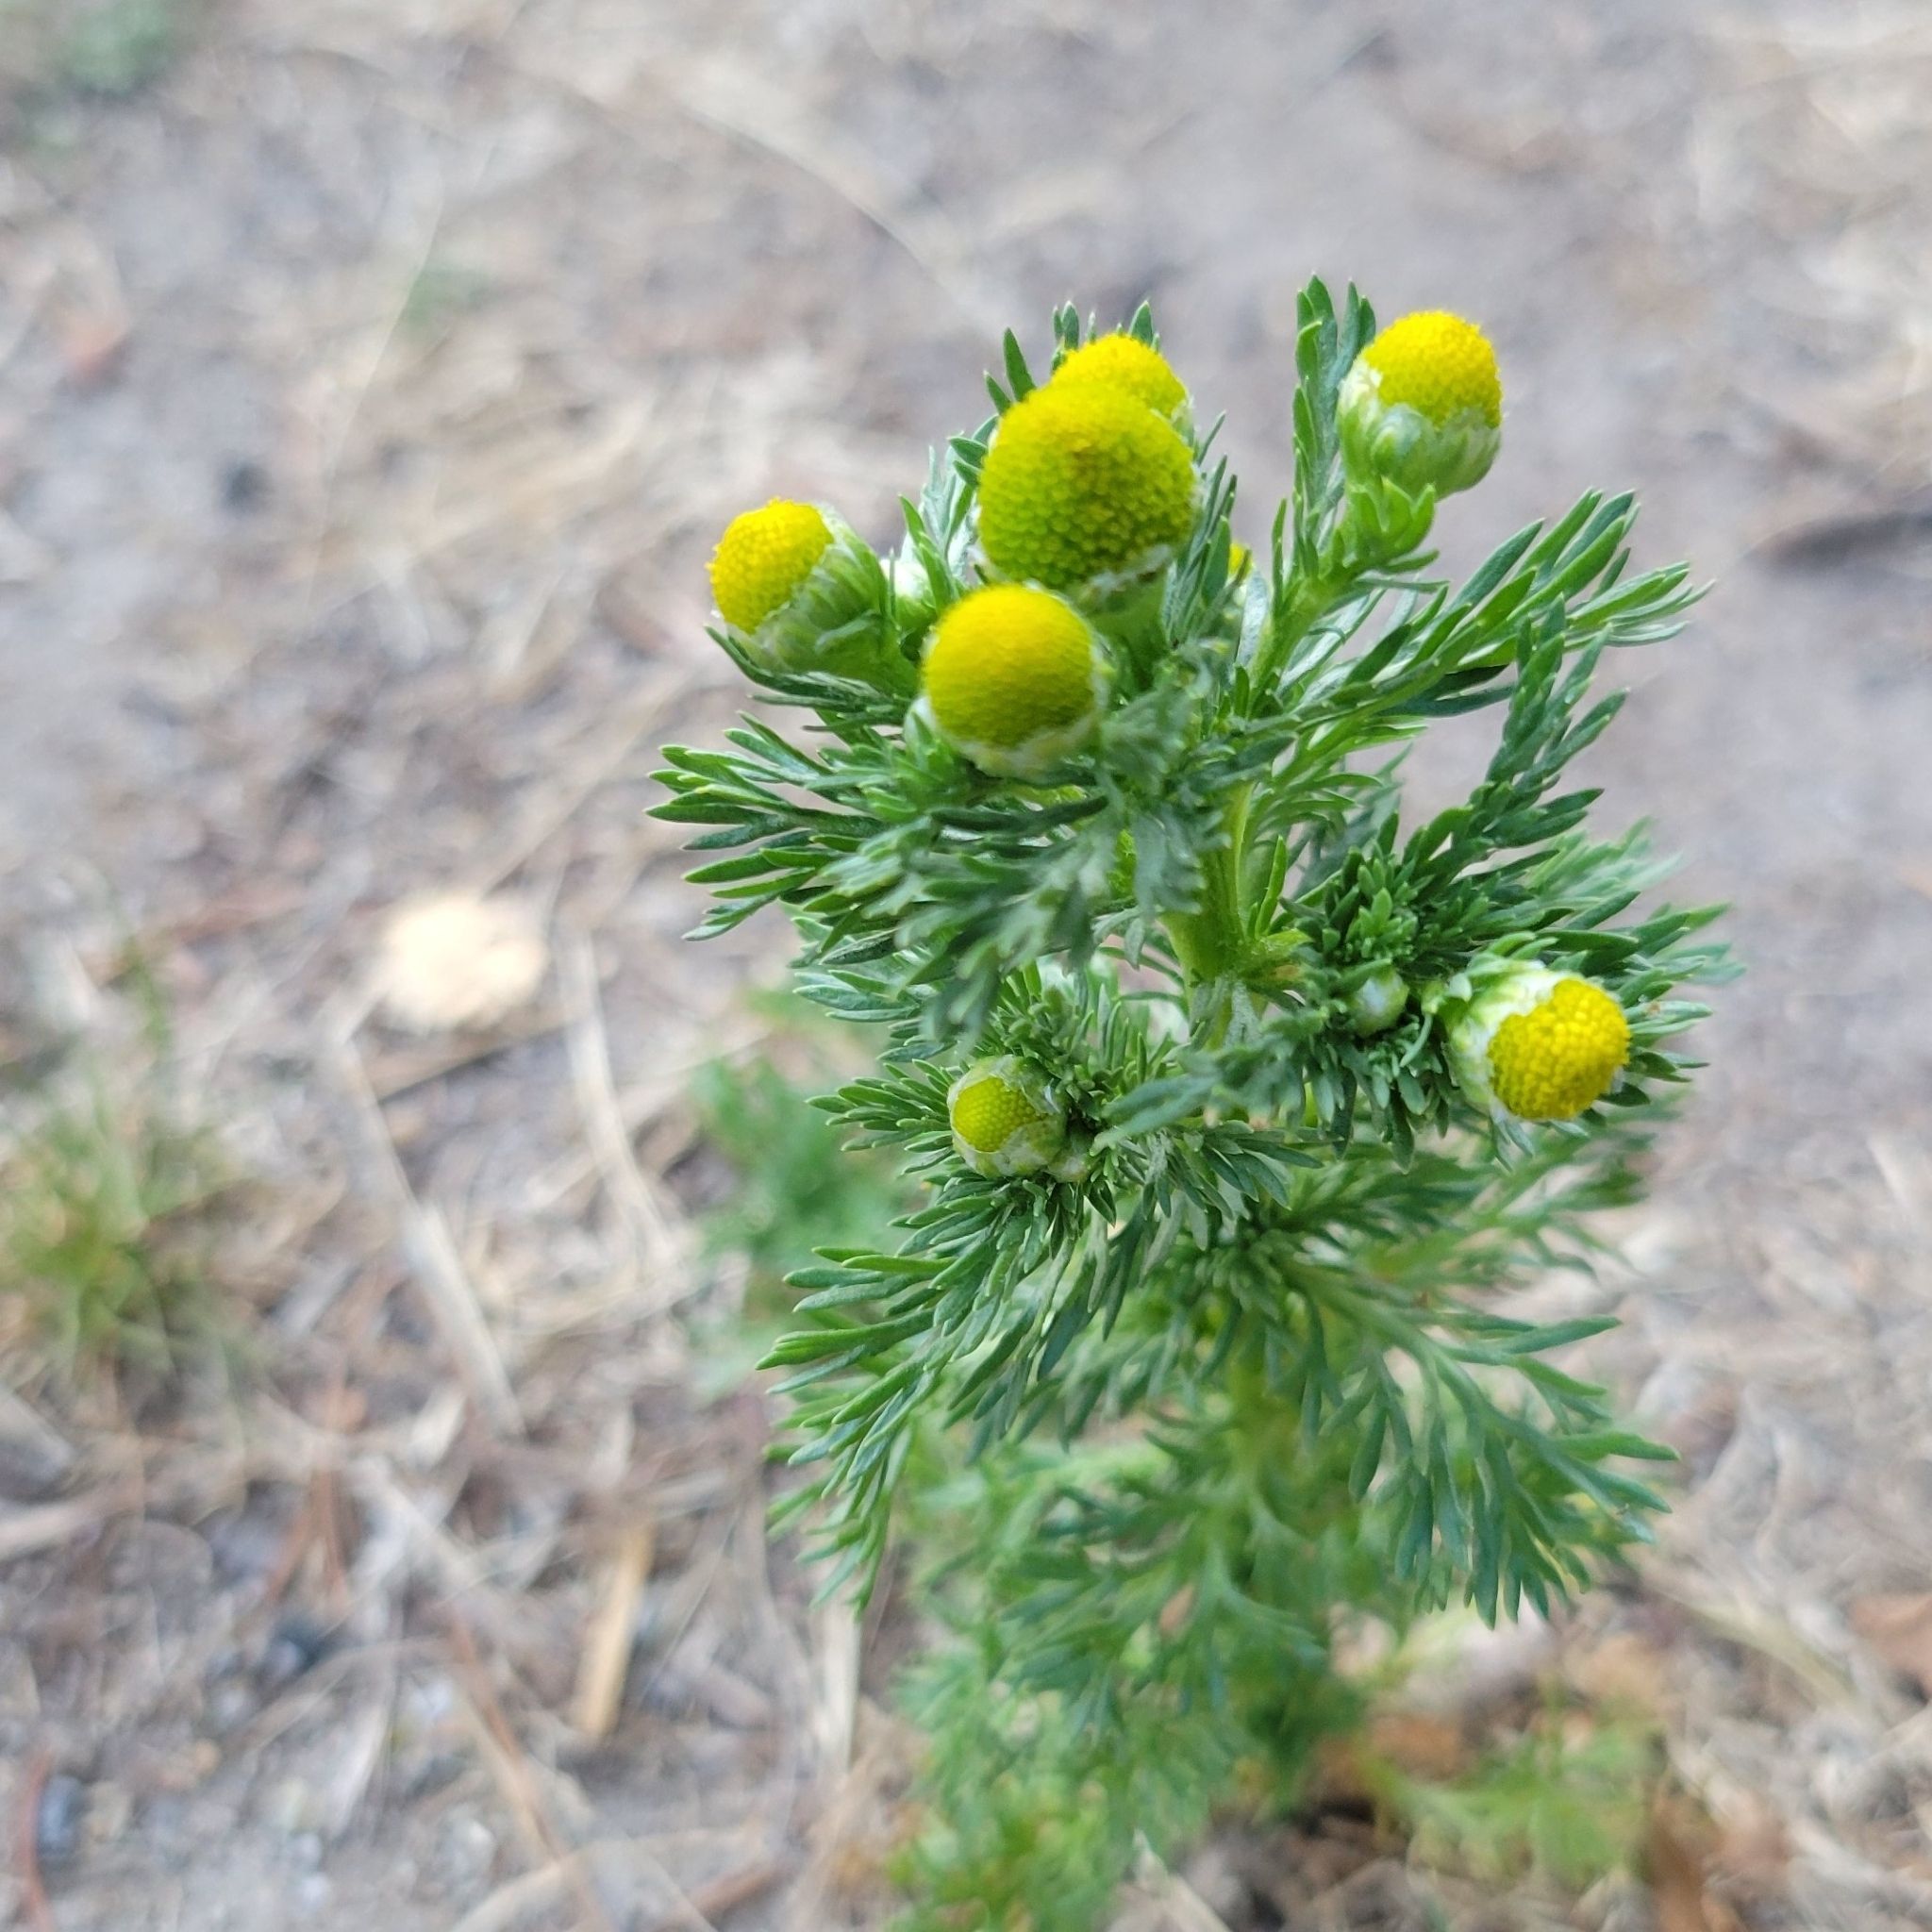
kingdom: Plantae
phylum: Tracheophyta
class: Magnoliopsida
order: Asterales
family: Asteraceae
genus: Matricaria
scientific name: Matricaria discoidea
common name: Disc mayweed
